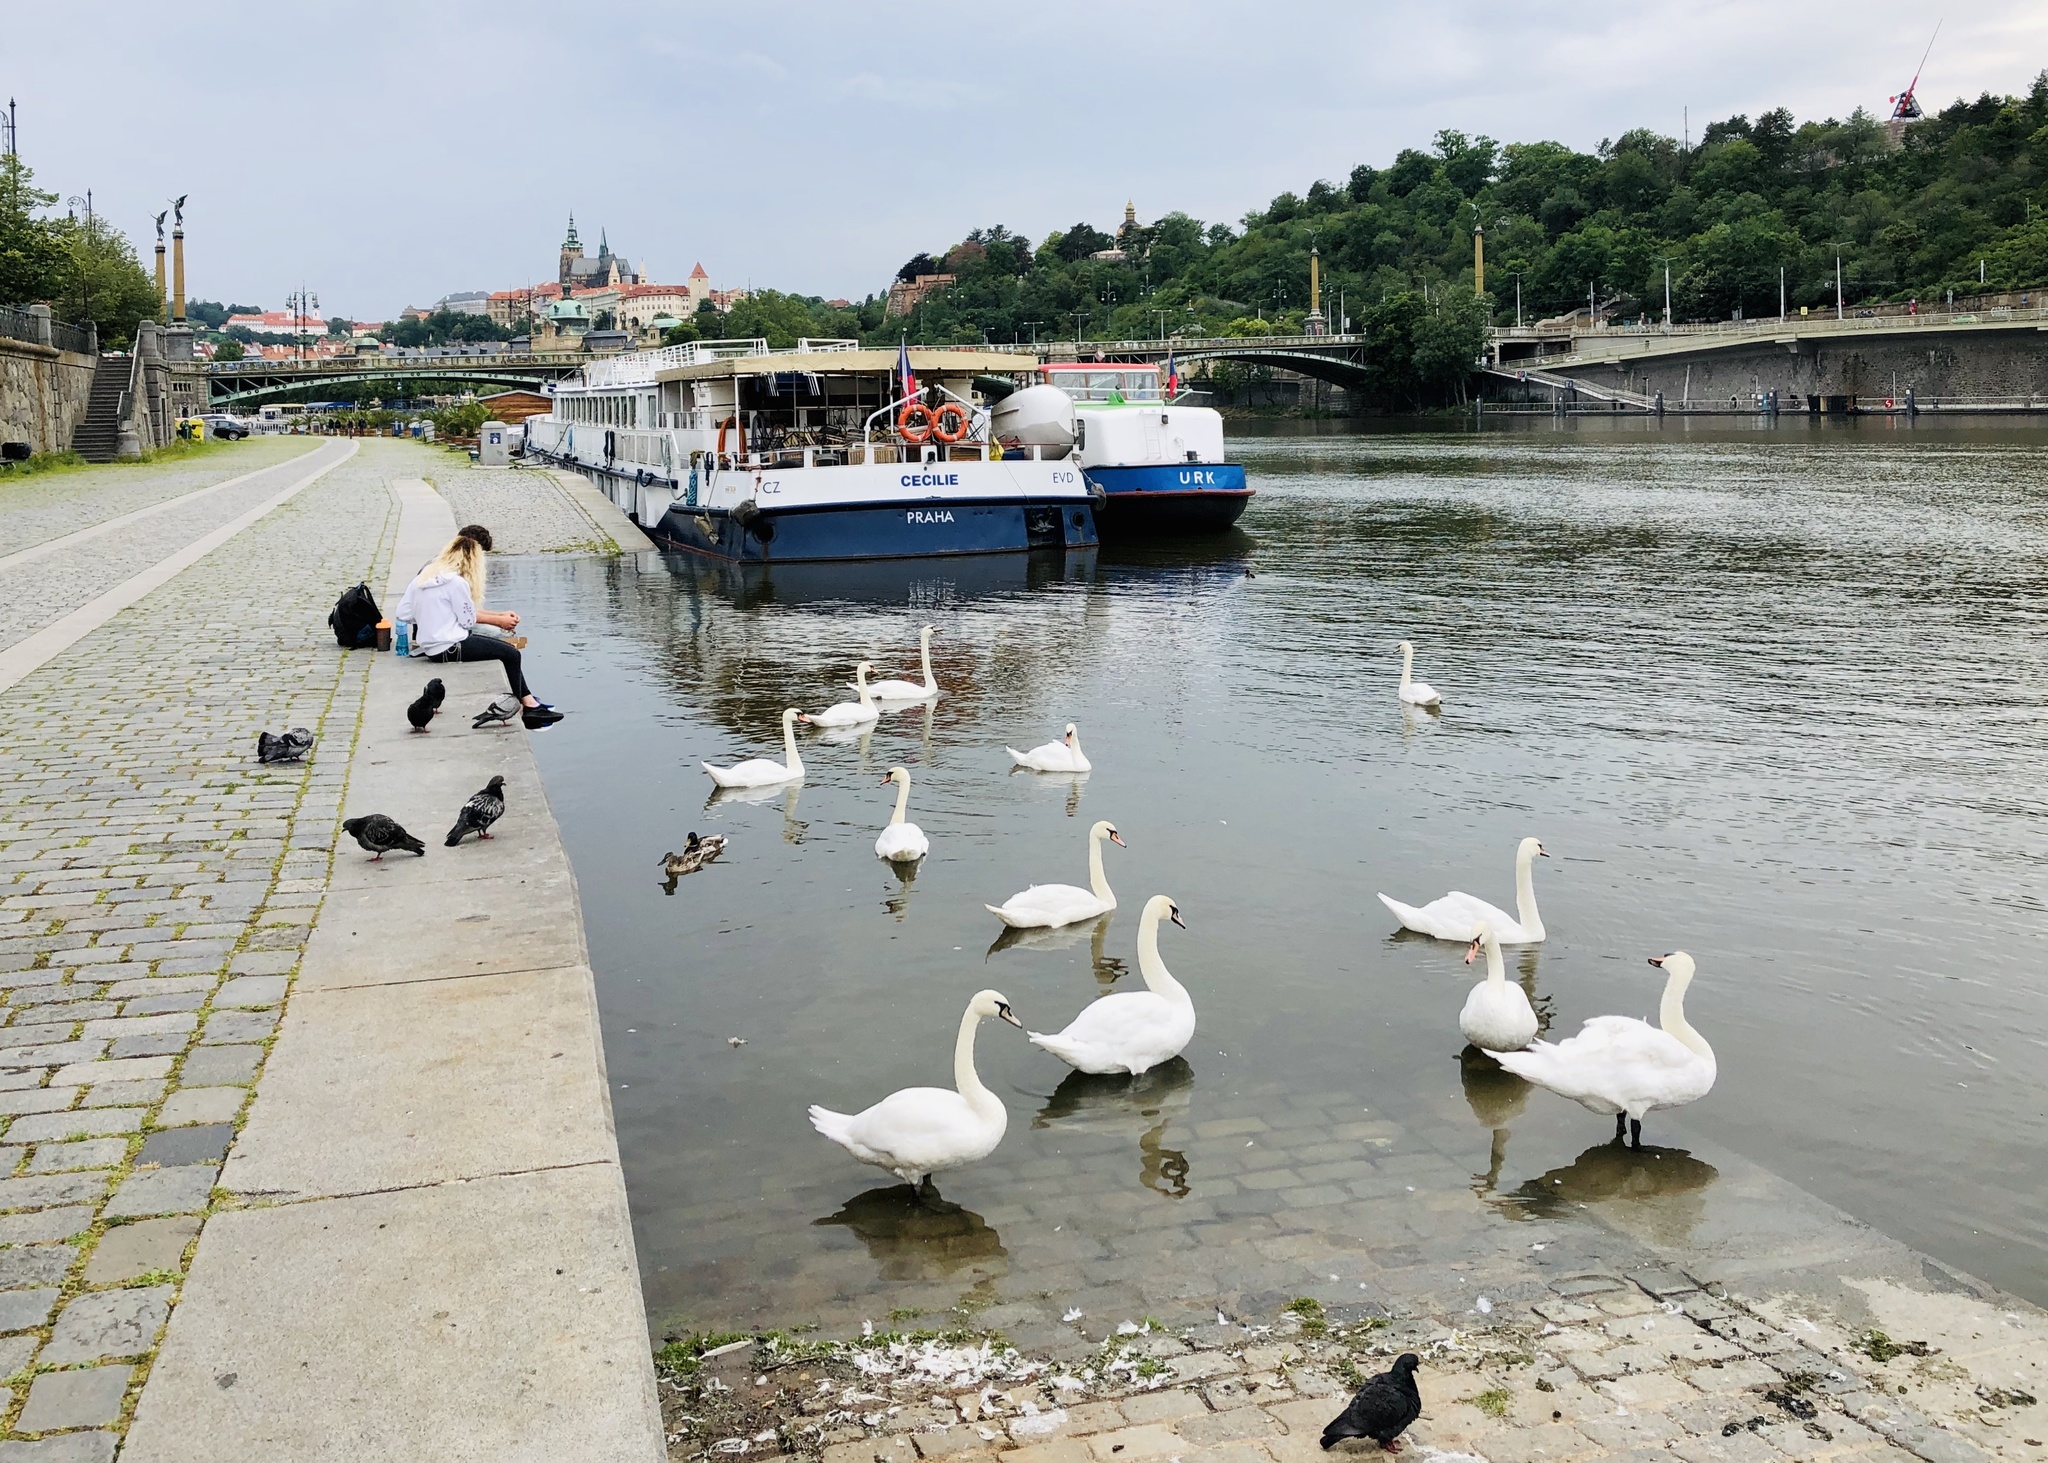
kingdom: Animalia
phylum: Chordata
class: Aves
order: Anseriformes
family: Anatidae
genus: Cygnus
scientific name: Cygnus olor
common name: Mute swan
